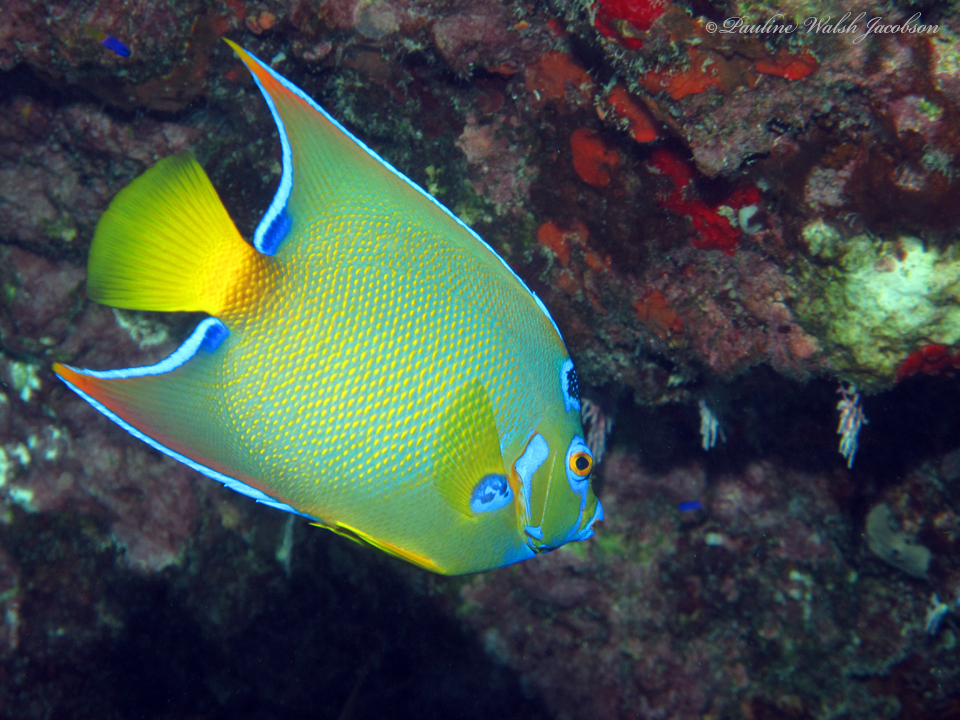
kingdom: Animalia
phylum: Chordata
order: Perciformes
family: Pomacanthidae
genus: Holacanthus
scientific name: Holacanthus ciliaris
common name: Queen angelfish
